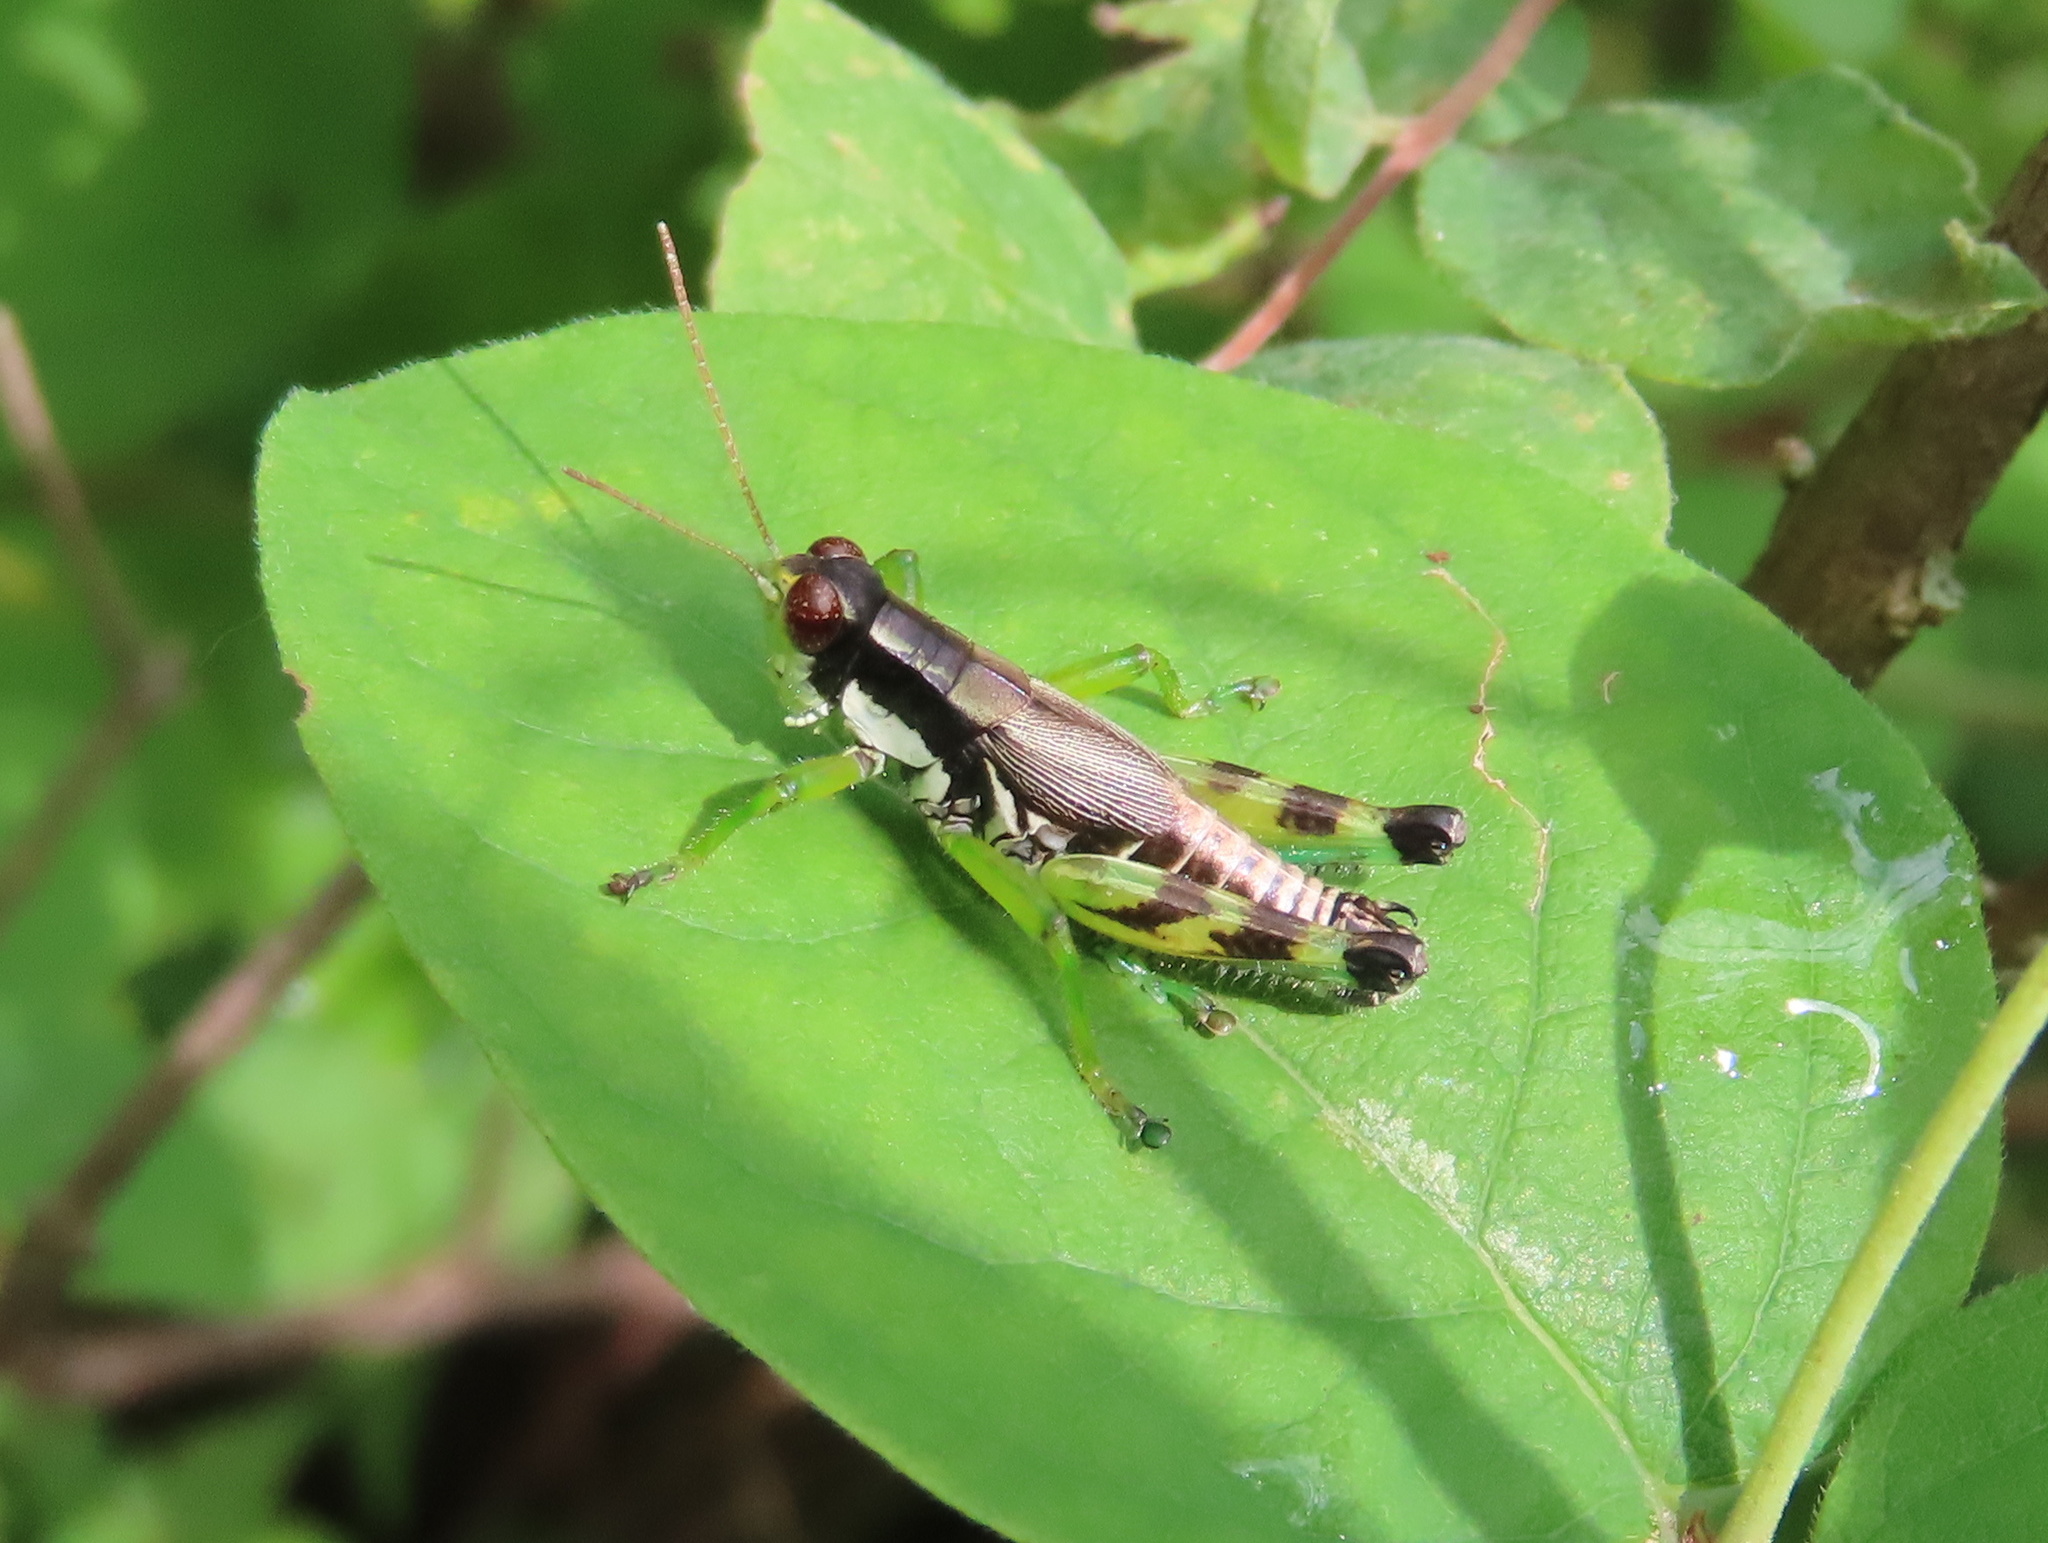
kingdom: Animalia
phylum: Arthropoda
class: Insecta
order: Orthoptera
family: Acrididae
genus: Melanoplus
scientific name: Melanoplus viridipes
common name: Green-legged locust
